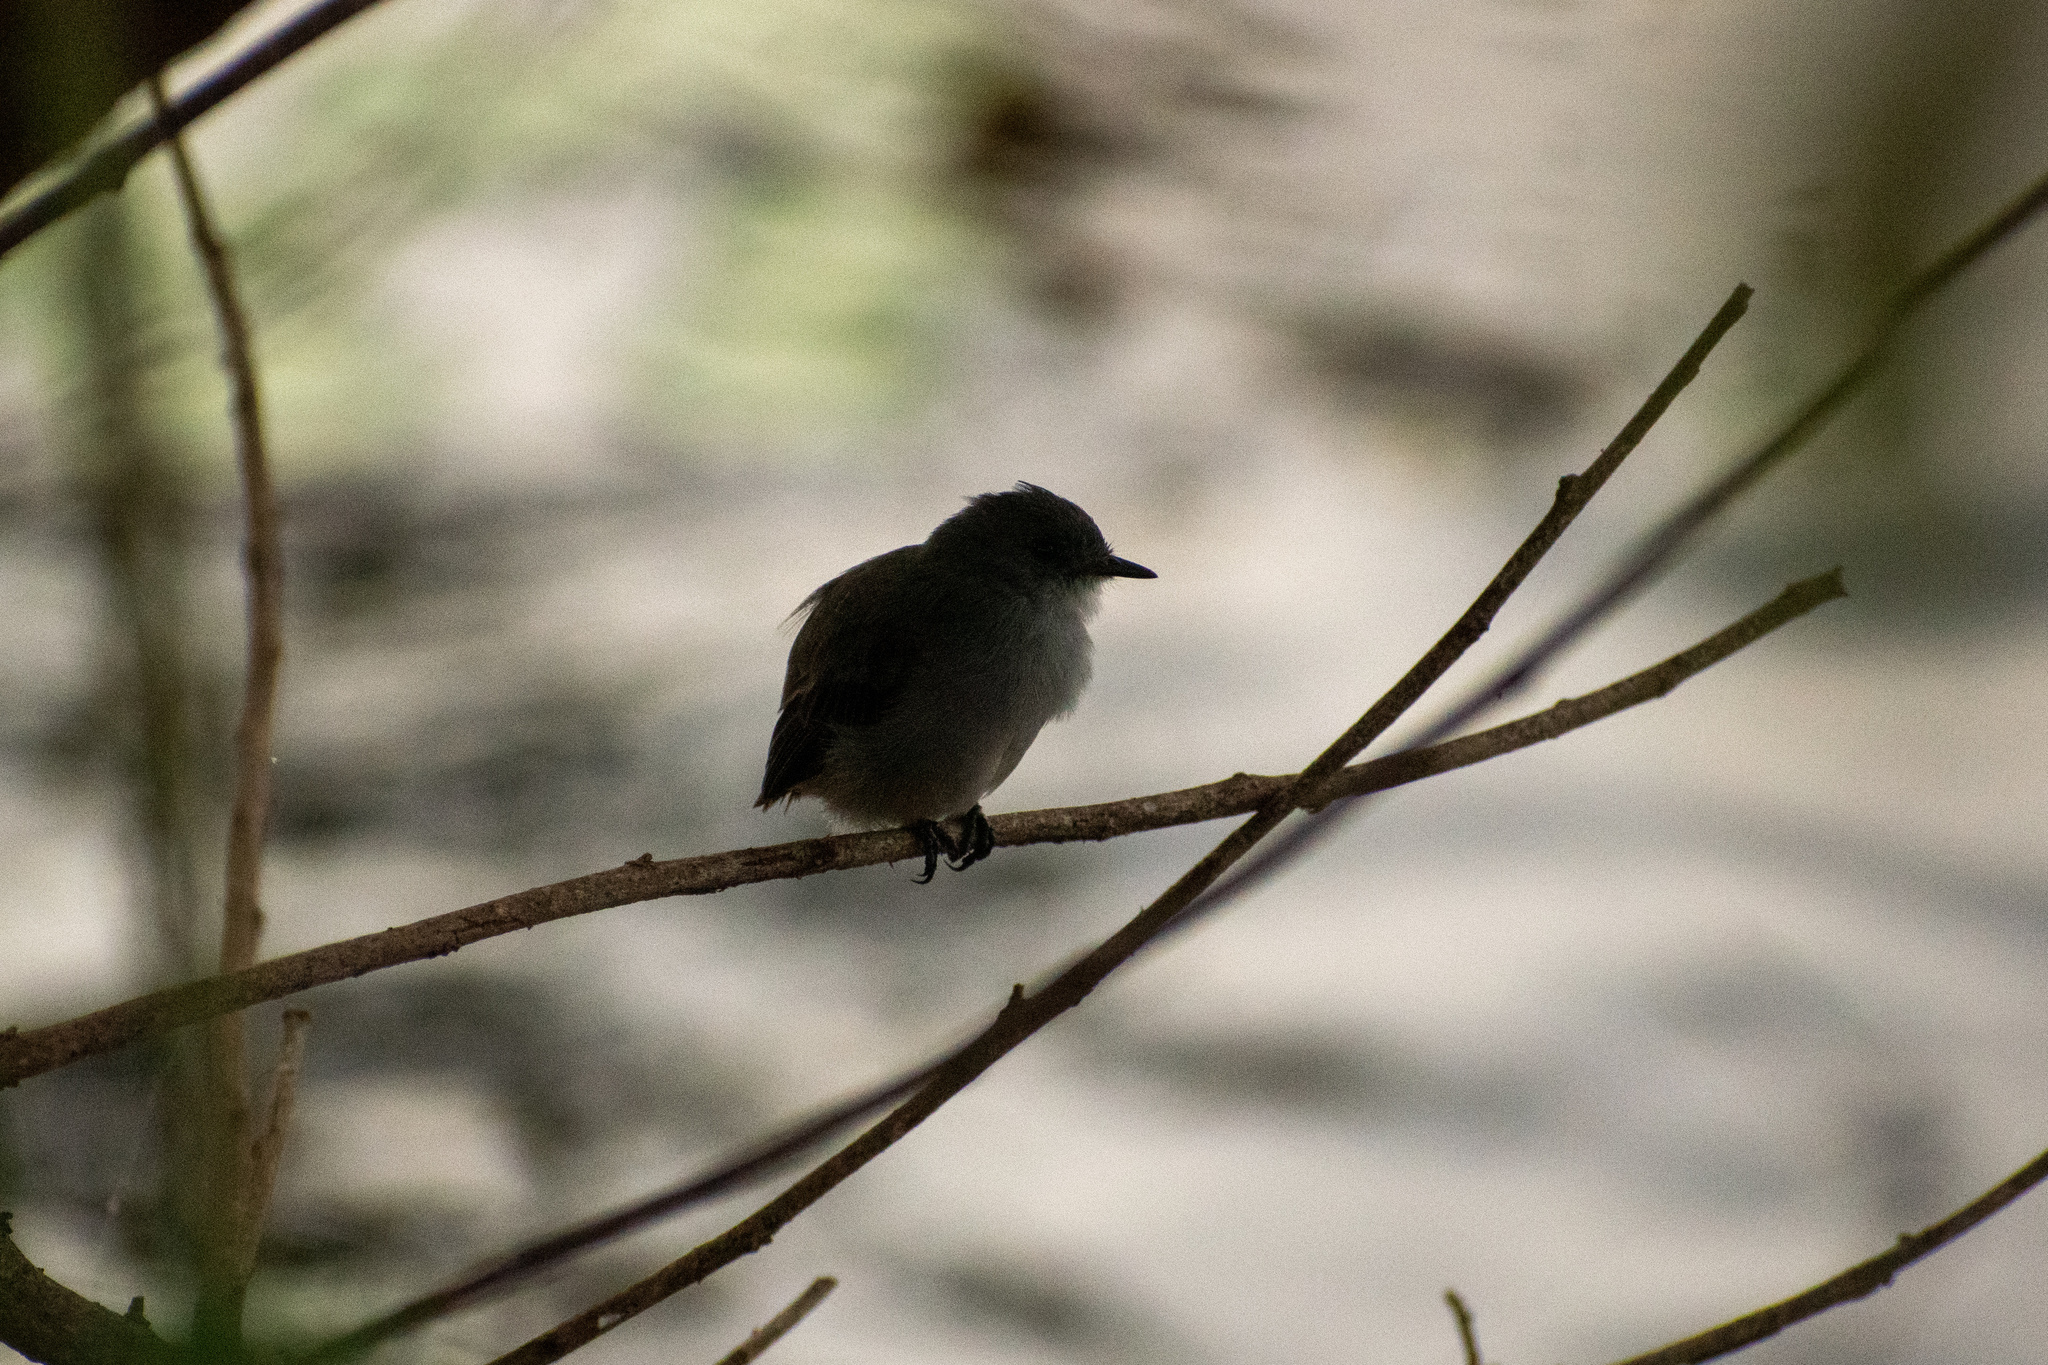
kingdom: Animalia
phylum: Chordata
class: Aves
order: Passeriformes
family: Tyrannidae
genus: Serpophaga
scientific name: Serpophaga nigricans
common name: Sooty tyrannulet
